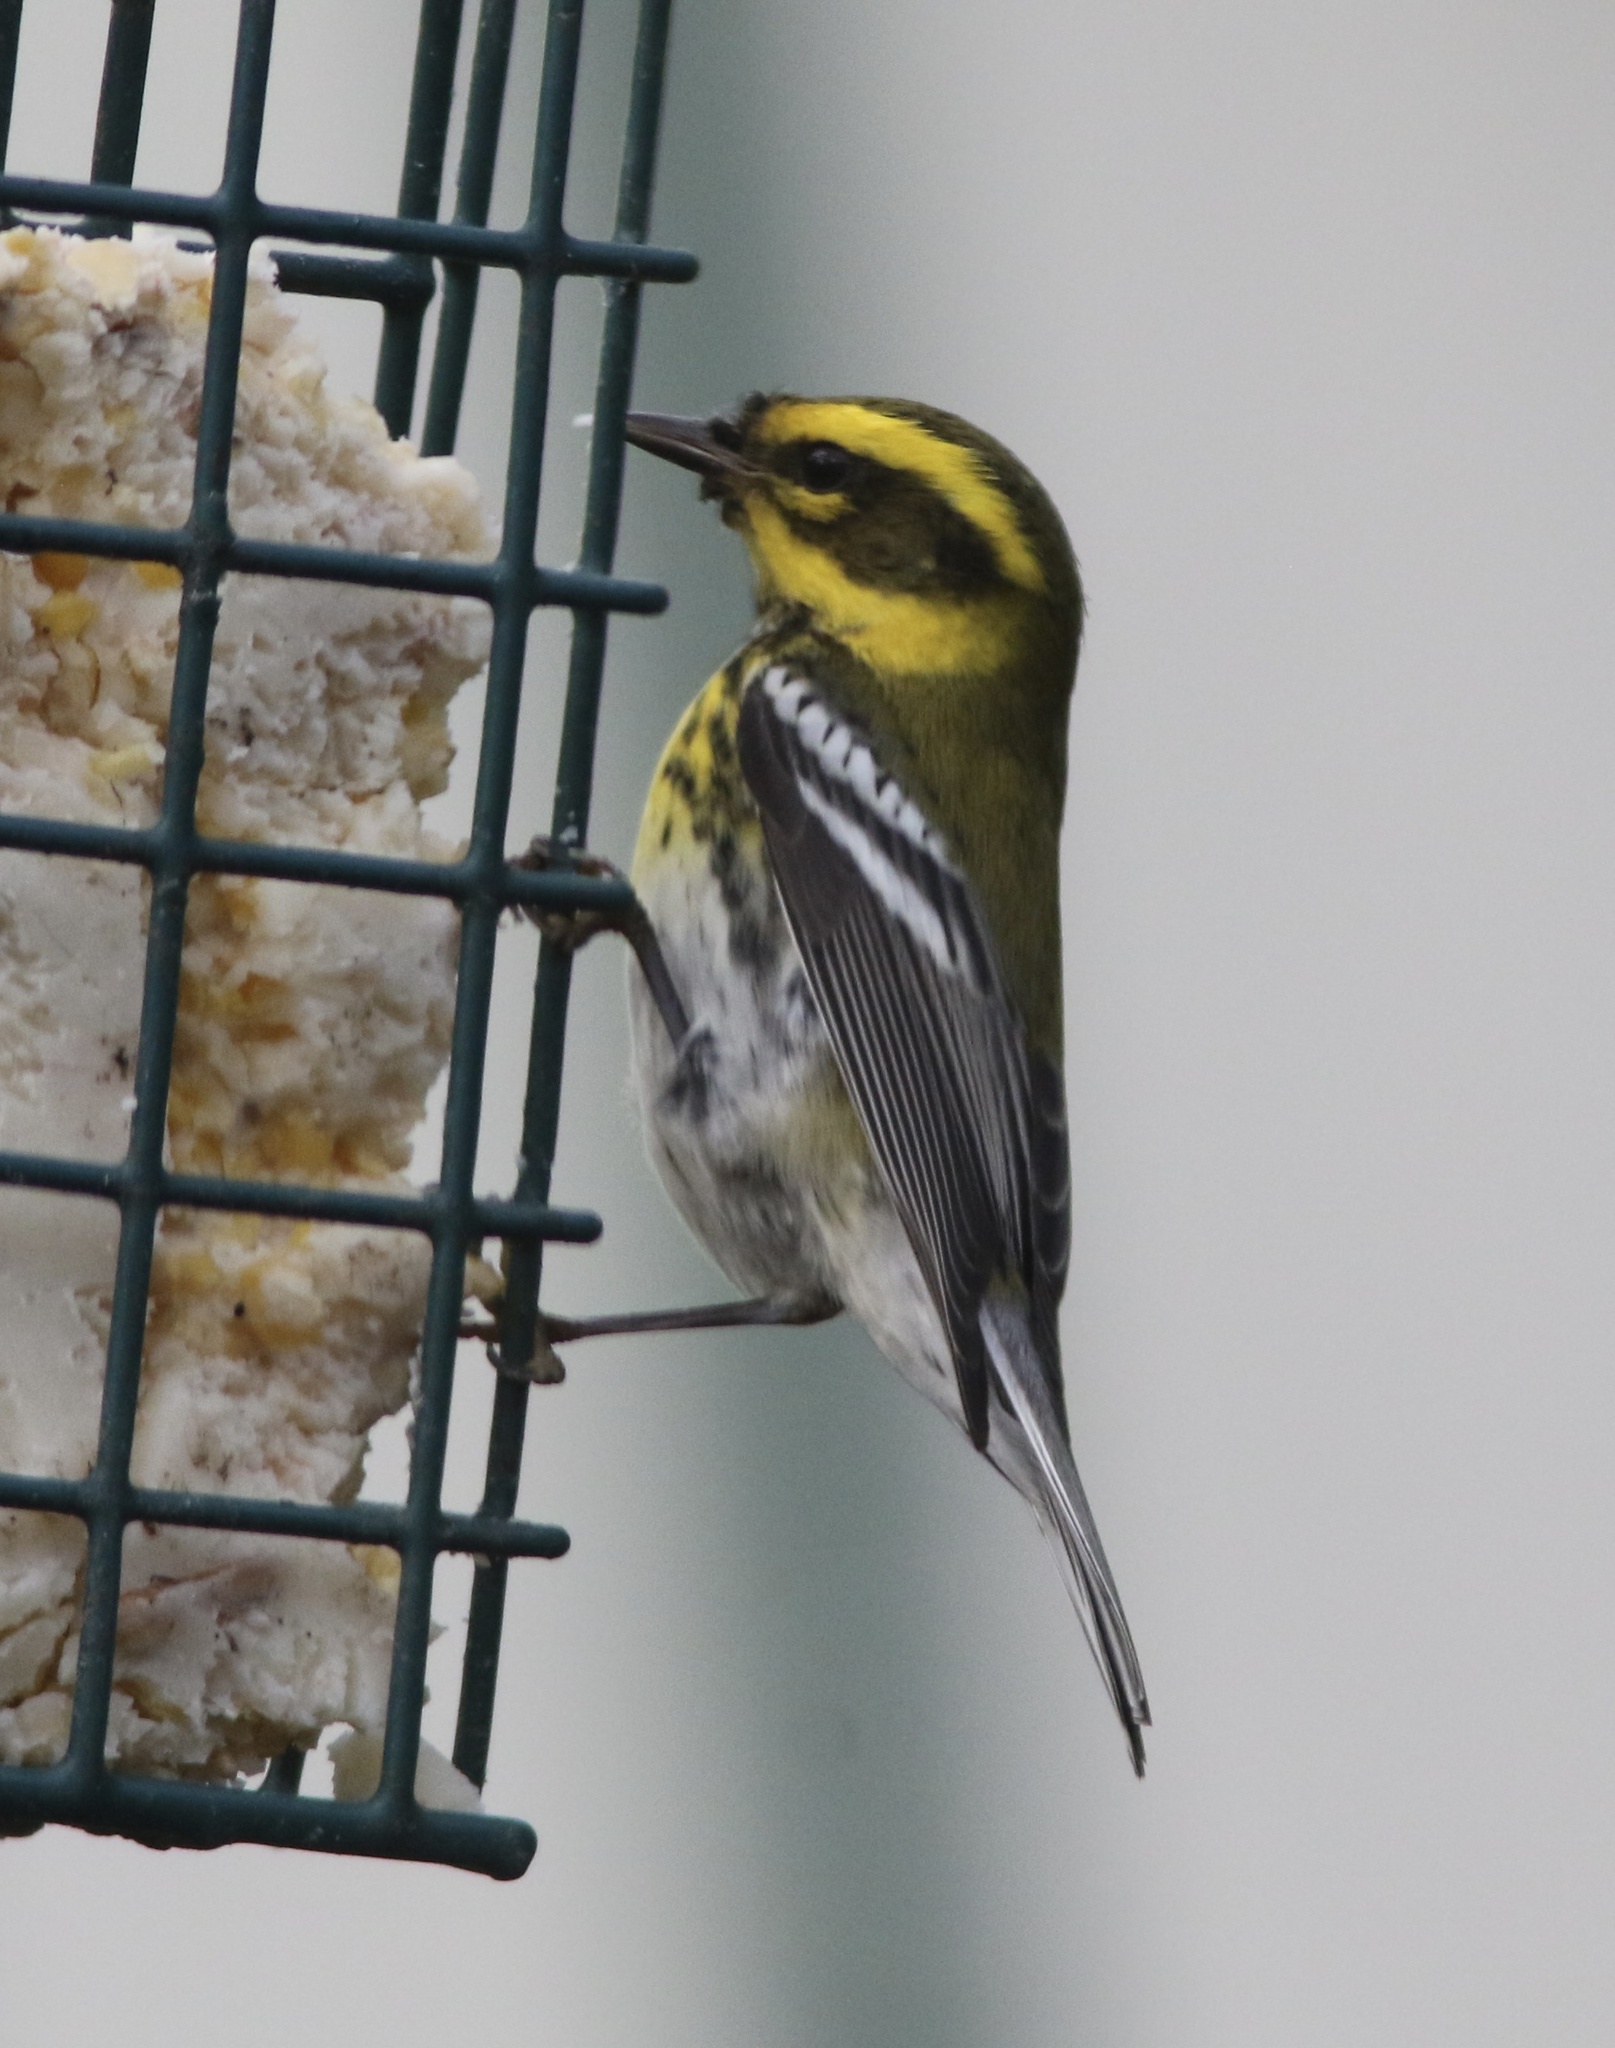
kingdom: Animalia
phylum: Chordata
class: Aves
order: Passeriformes
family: Parulidae
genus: Setophaga
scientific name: Setophaga townsendi
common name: Townsend's warbler
